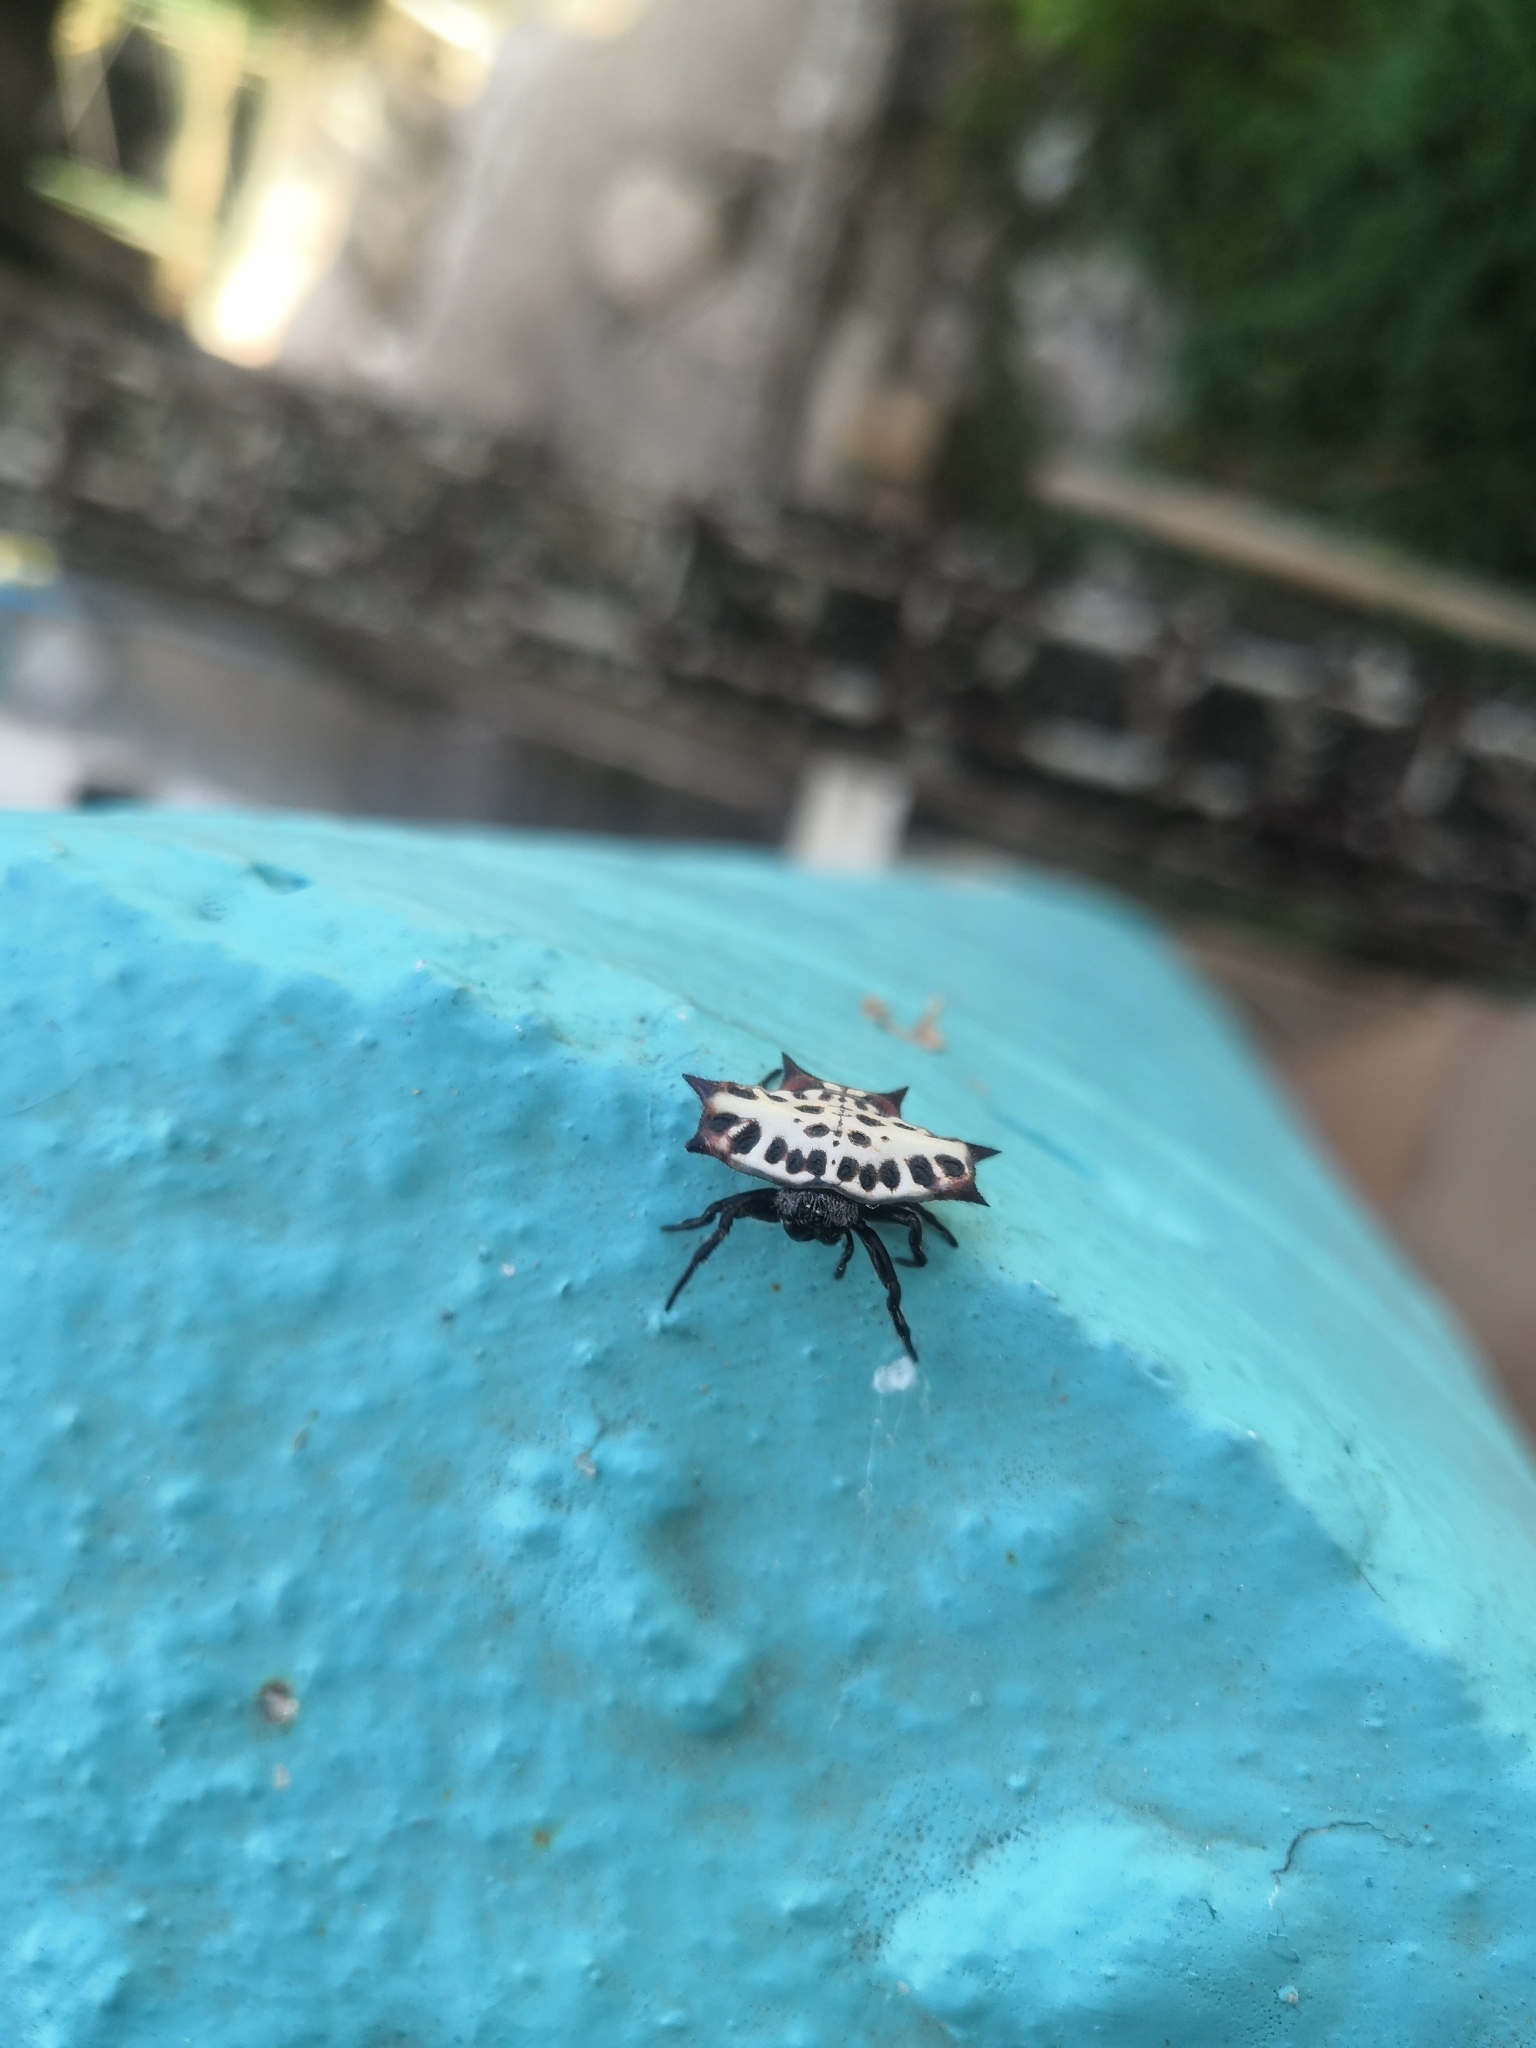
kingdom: Animalia
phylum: Arthropoda
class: Arachnida
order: Araneae
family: Araneidae
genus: Gasteracantha
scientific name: Gasteracantha cancriformis
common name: Orb weavers
